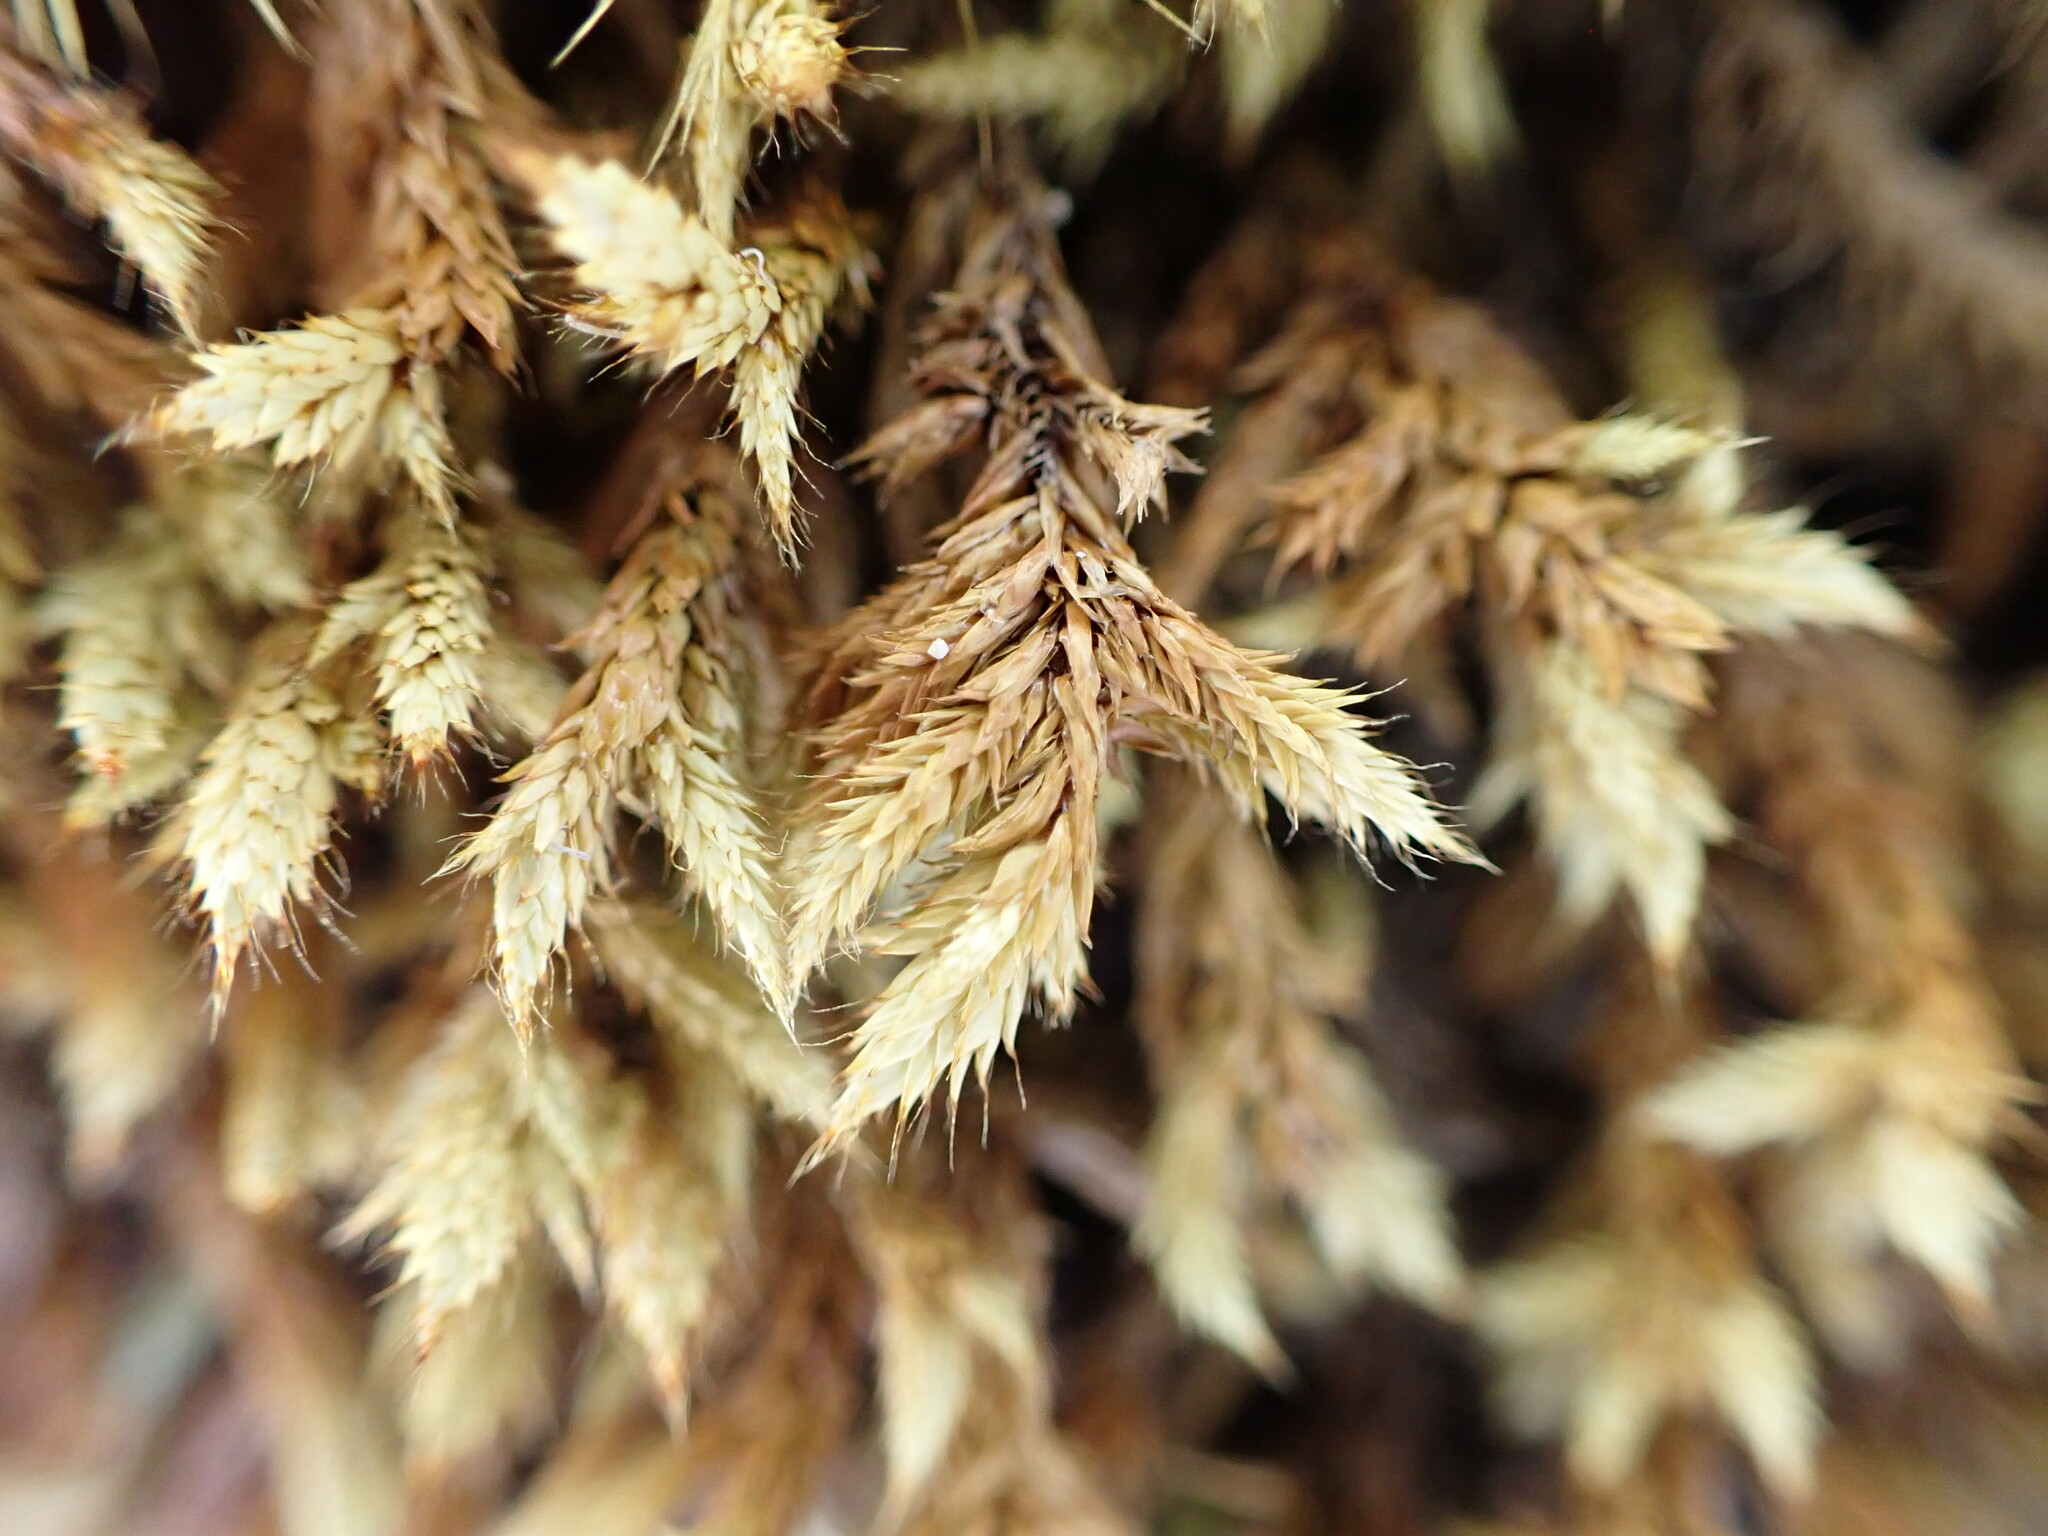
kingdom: Plantae
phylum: Bryophyta
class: Bryopsida
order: Hedwigiales
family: Hedwigiaceae
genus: Rhacocarpus
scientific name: Rhacocarpus purpurascens
